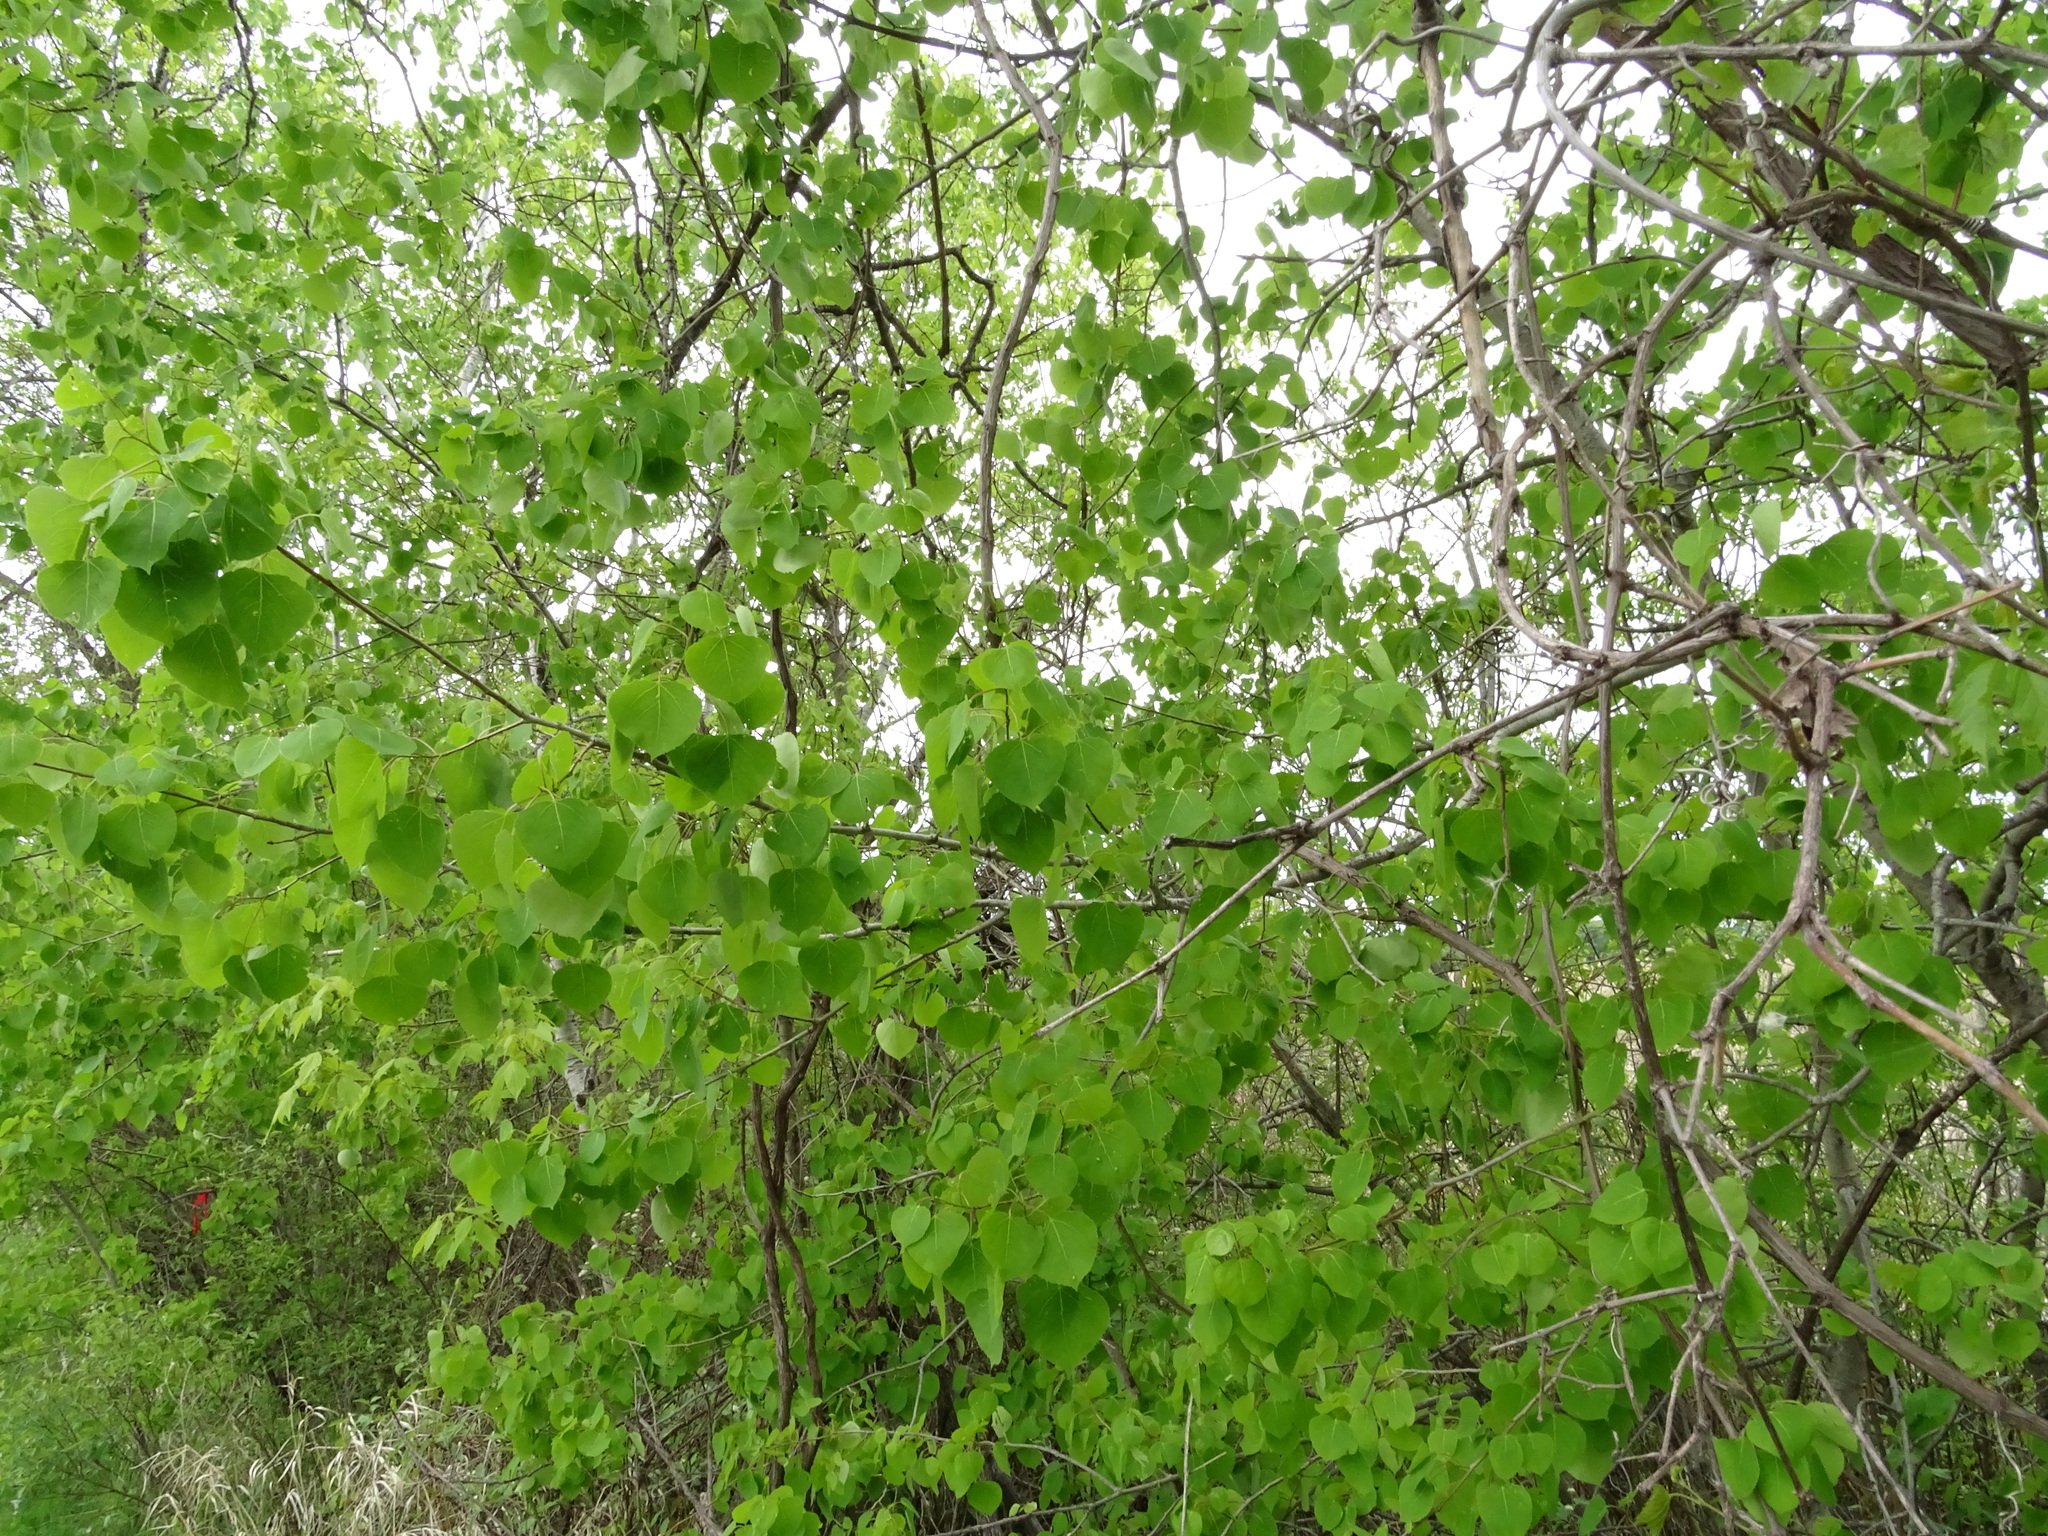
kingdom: Plantae
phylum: Tracheophyta
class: Magnoliopsida
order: Malpighiales
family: Salicaceae
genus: Populus
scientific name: Populus tremuloides
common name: Quaking aspen
